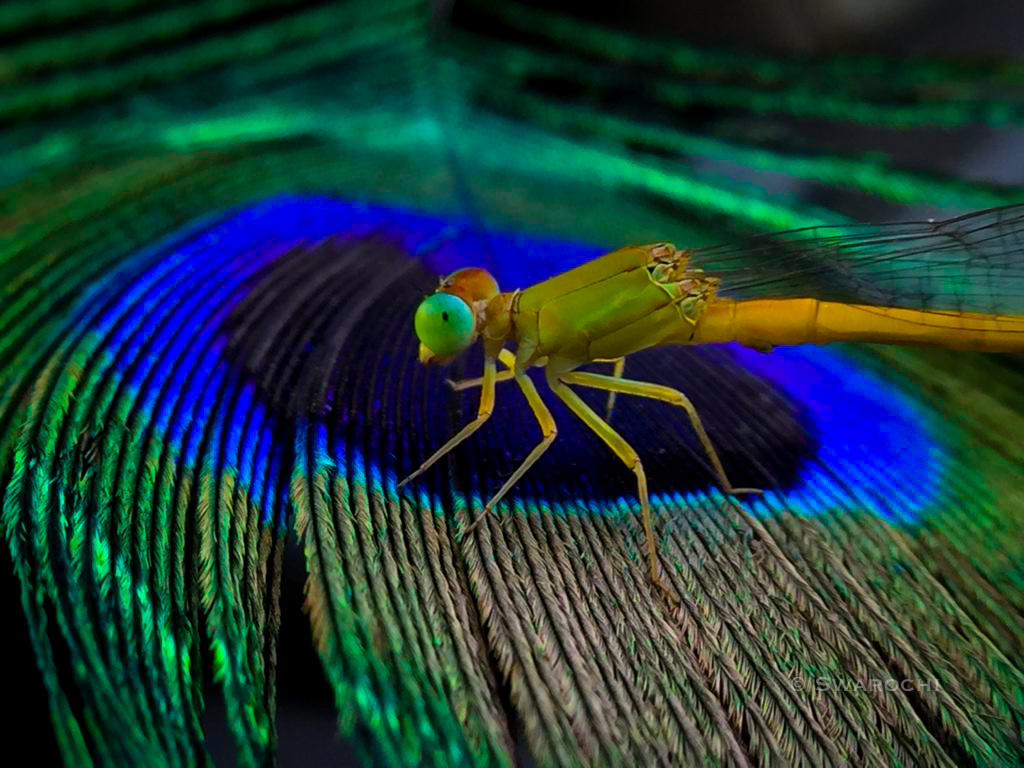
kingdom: Animalia
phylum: Arthropoda
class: Insecta
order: Odonata
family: Coenagrionidae
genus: Ceriagrion
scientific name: Ceriagrion coromandelianum
